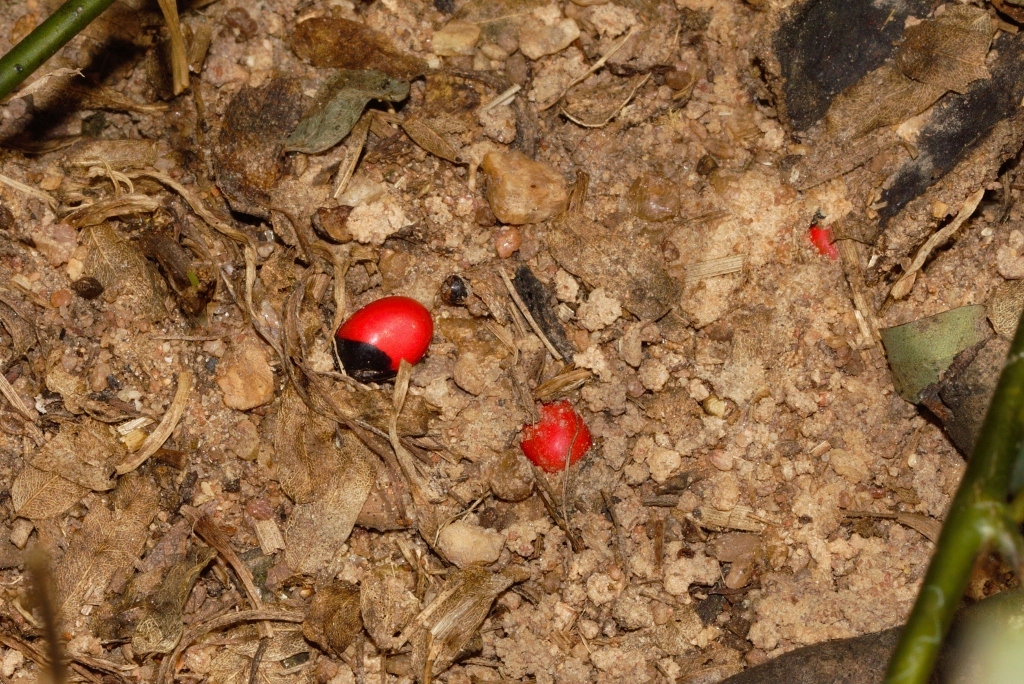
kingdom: Plantae
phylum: Tracheophyta
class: Magnoliopsida
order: Fabales
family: Fabaceae
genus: Abrus
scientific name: Abrus precatorius
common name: Rosarypea
